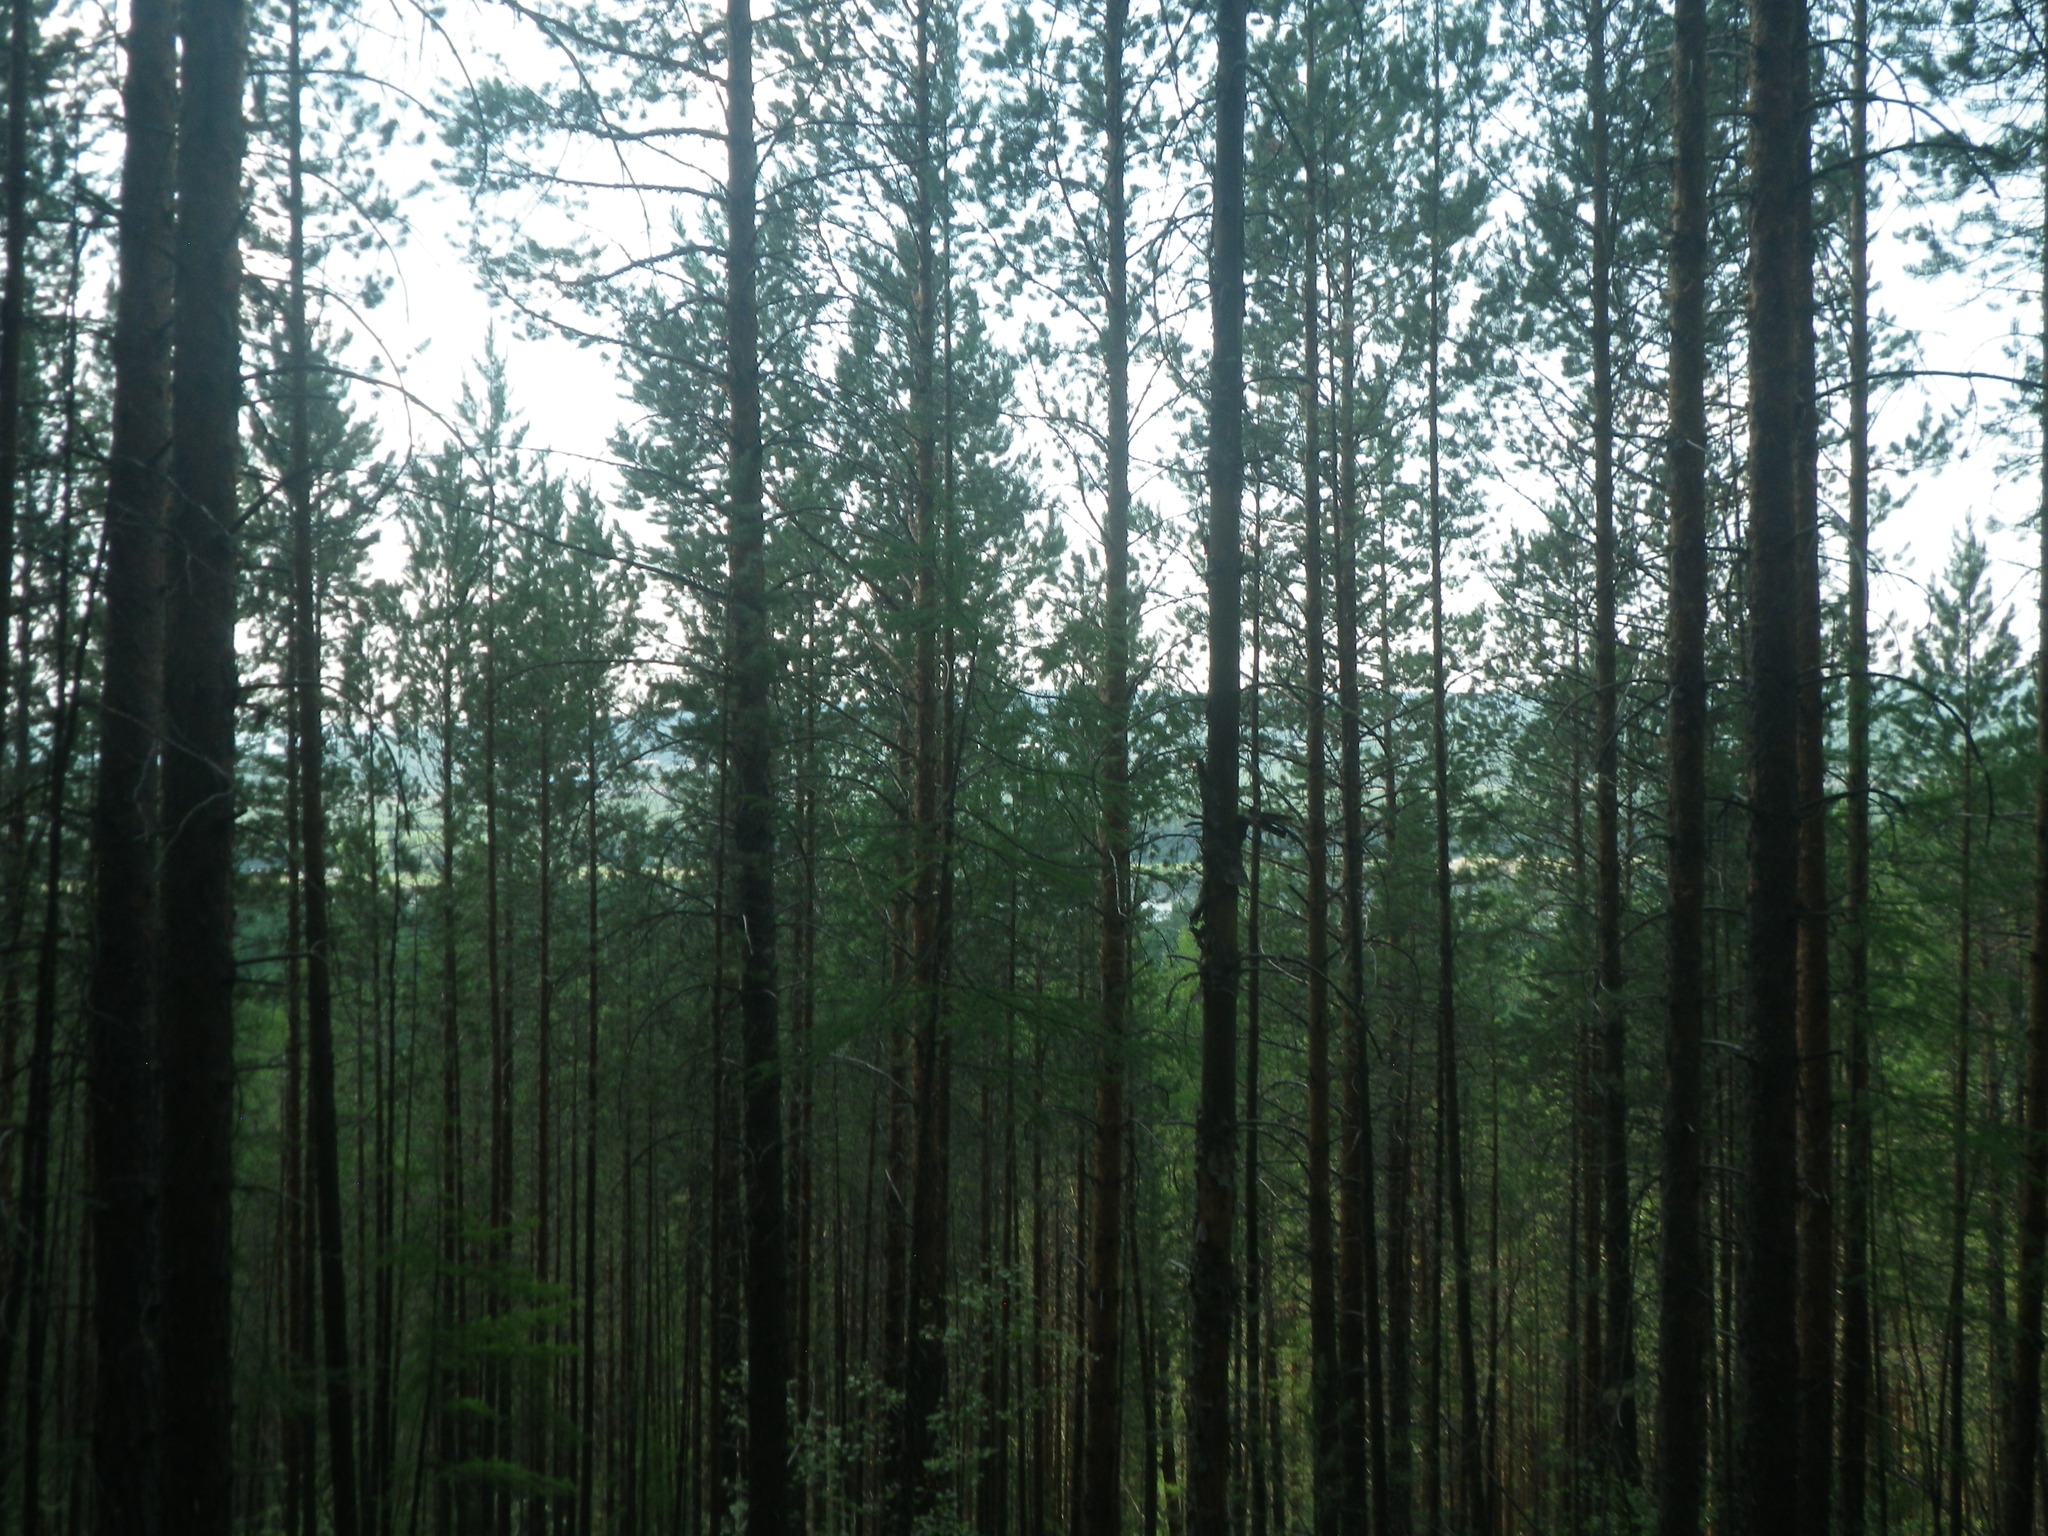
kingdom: Plantae
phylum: Tracheophyta
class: Pinopsida
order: Pinales
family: Pinaceae
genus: Pinus
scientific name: Pinus sylvestris
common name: Scots pine
